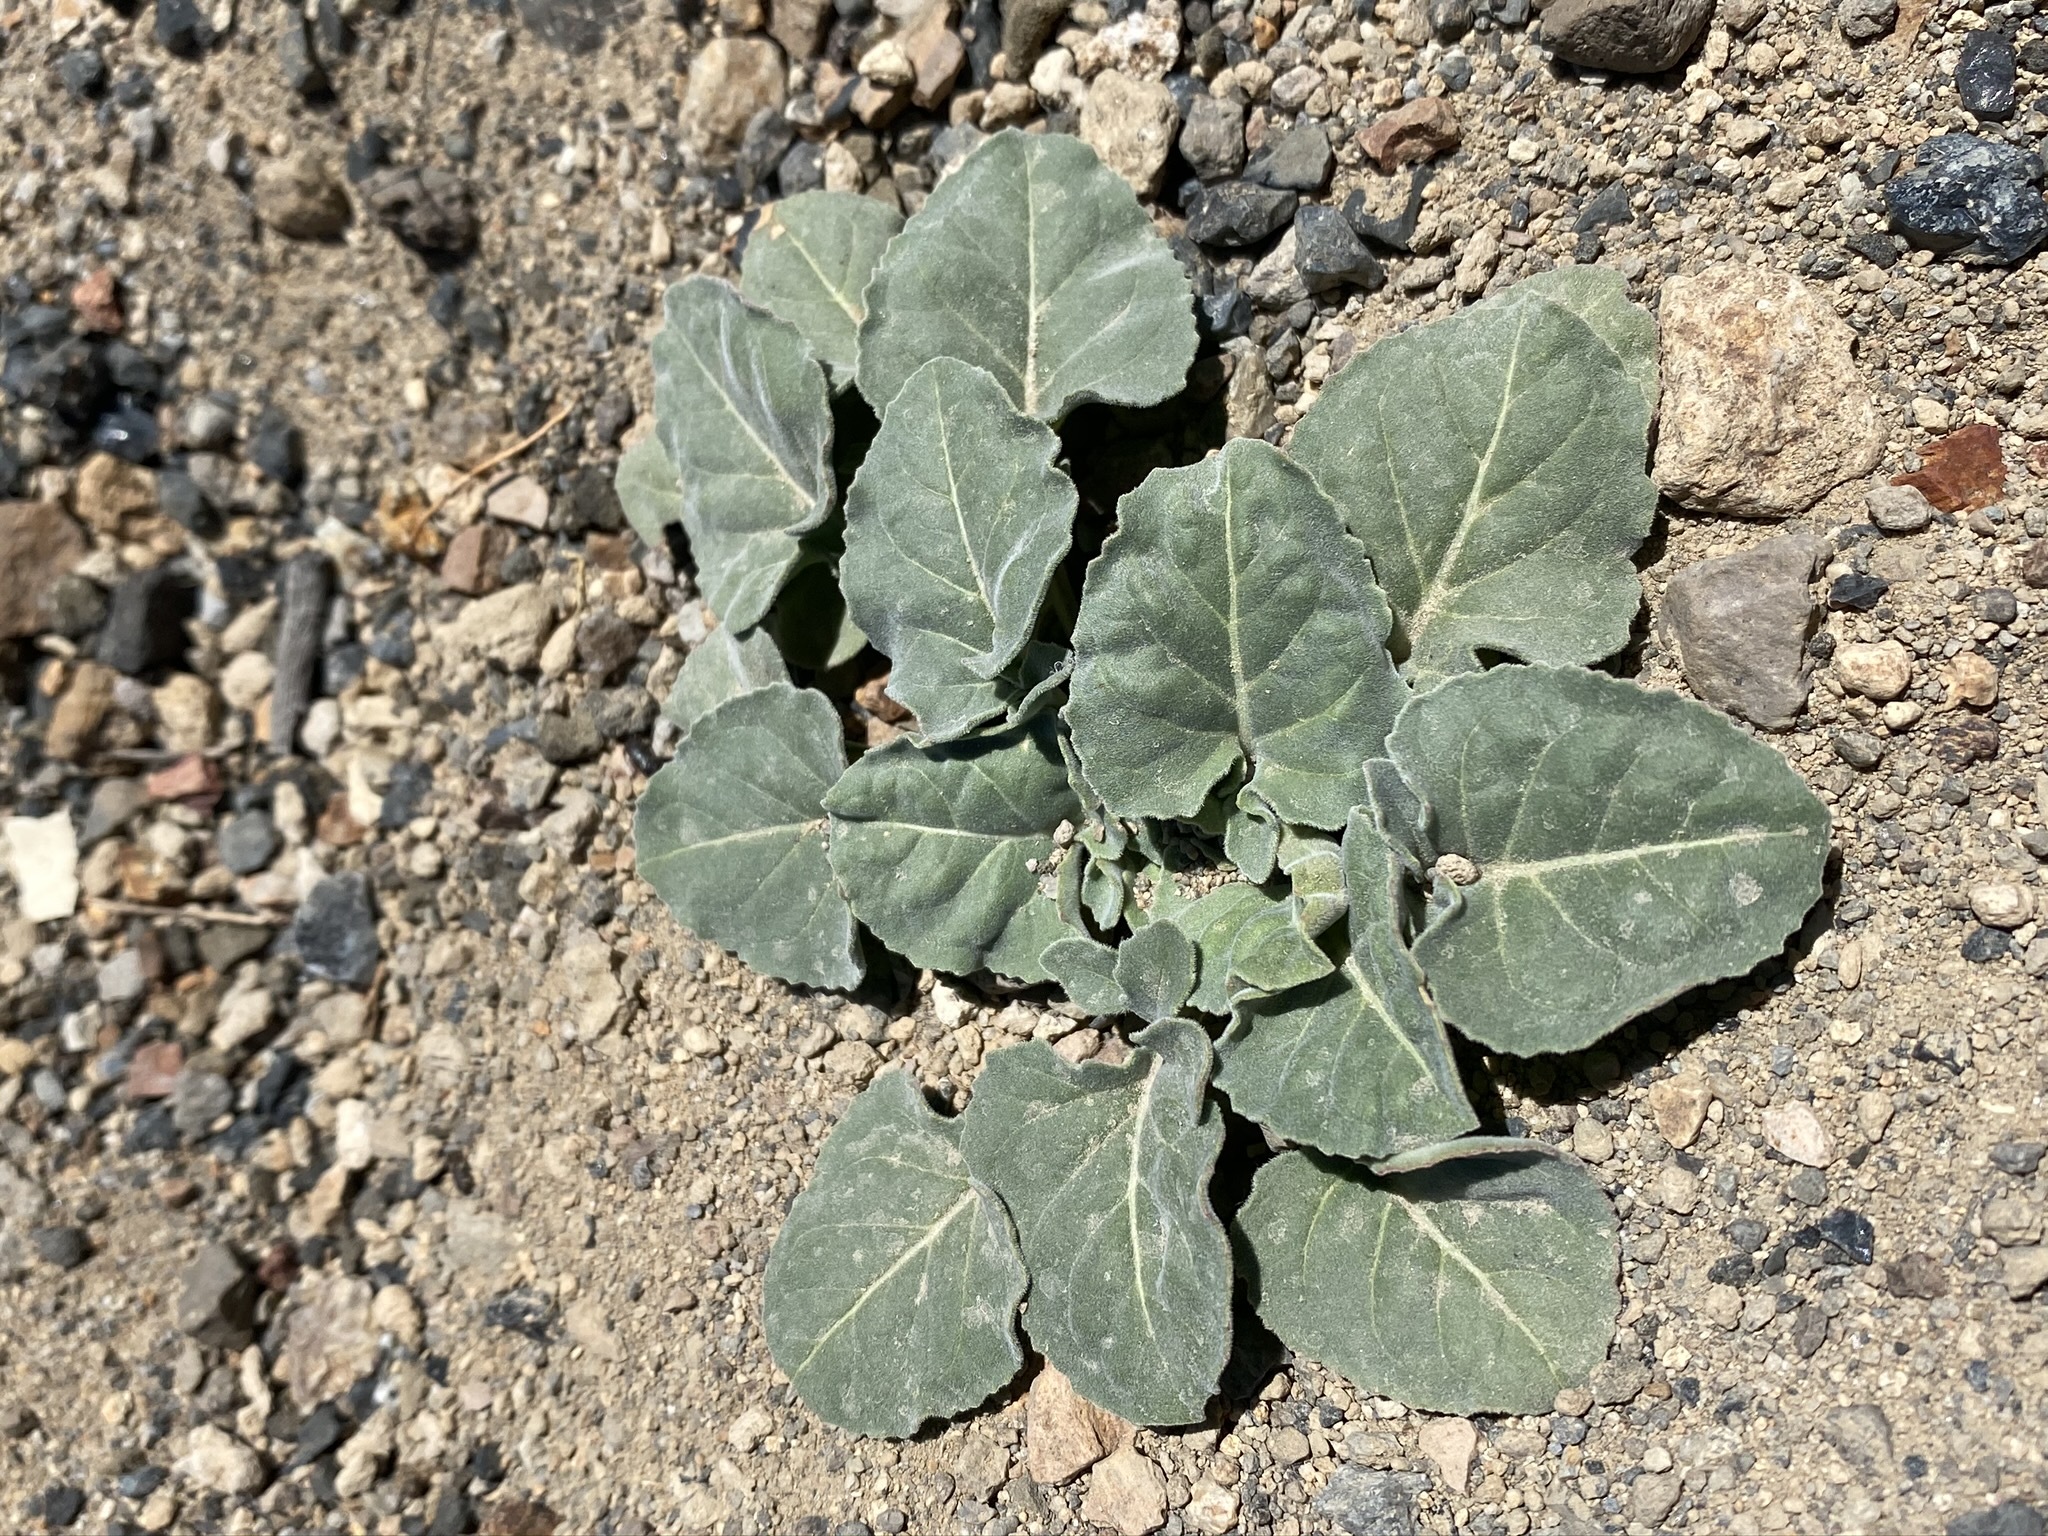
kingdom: Plantae
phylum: Tracheophyta
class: Magnoliopsida
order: Myrtales
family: Onagraceae
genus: Oenothera
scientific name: Oenothera xylocarpa
